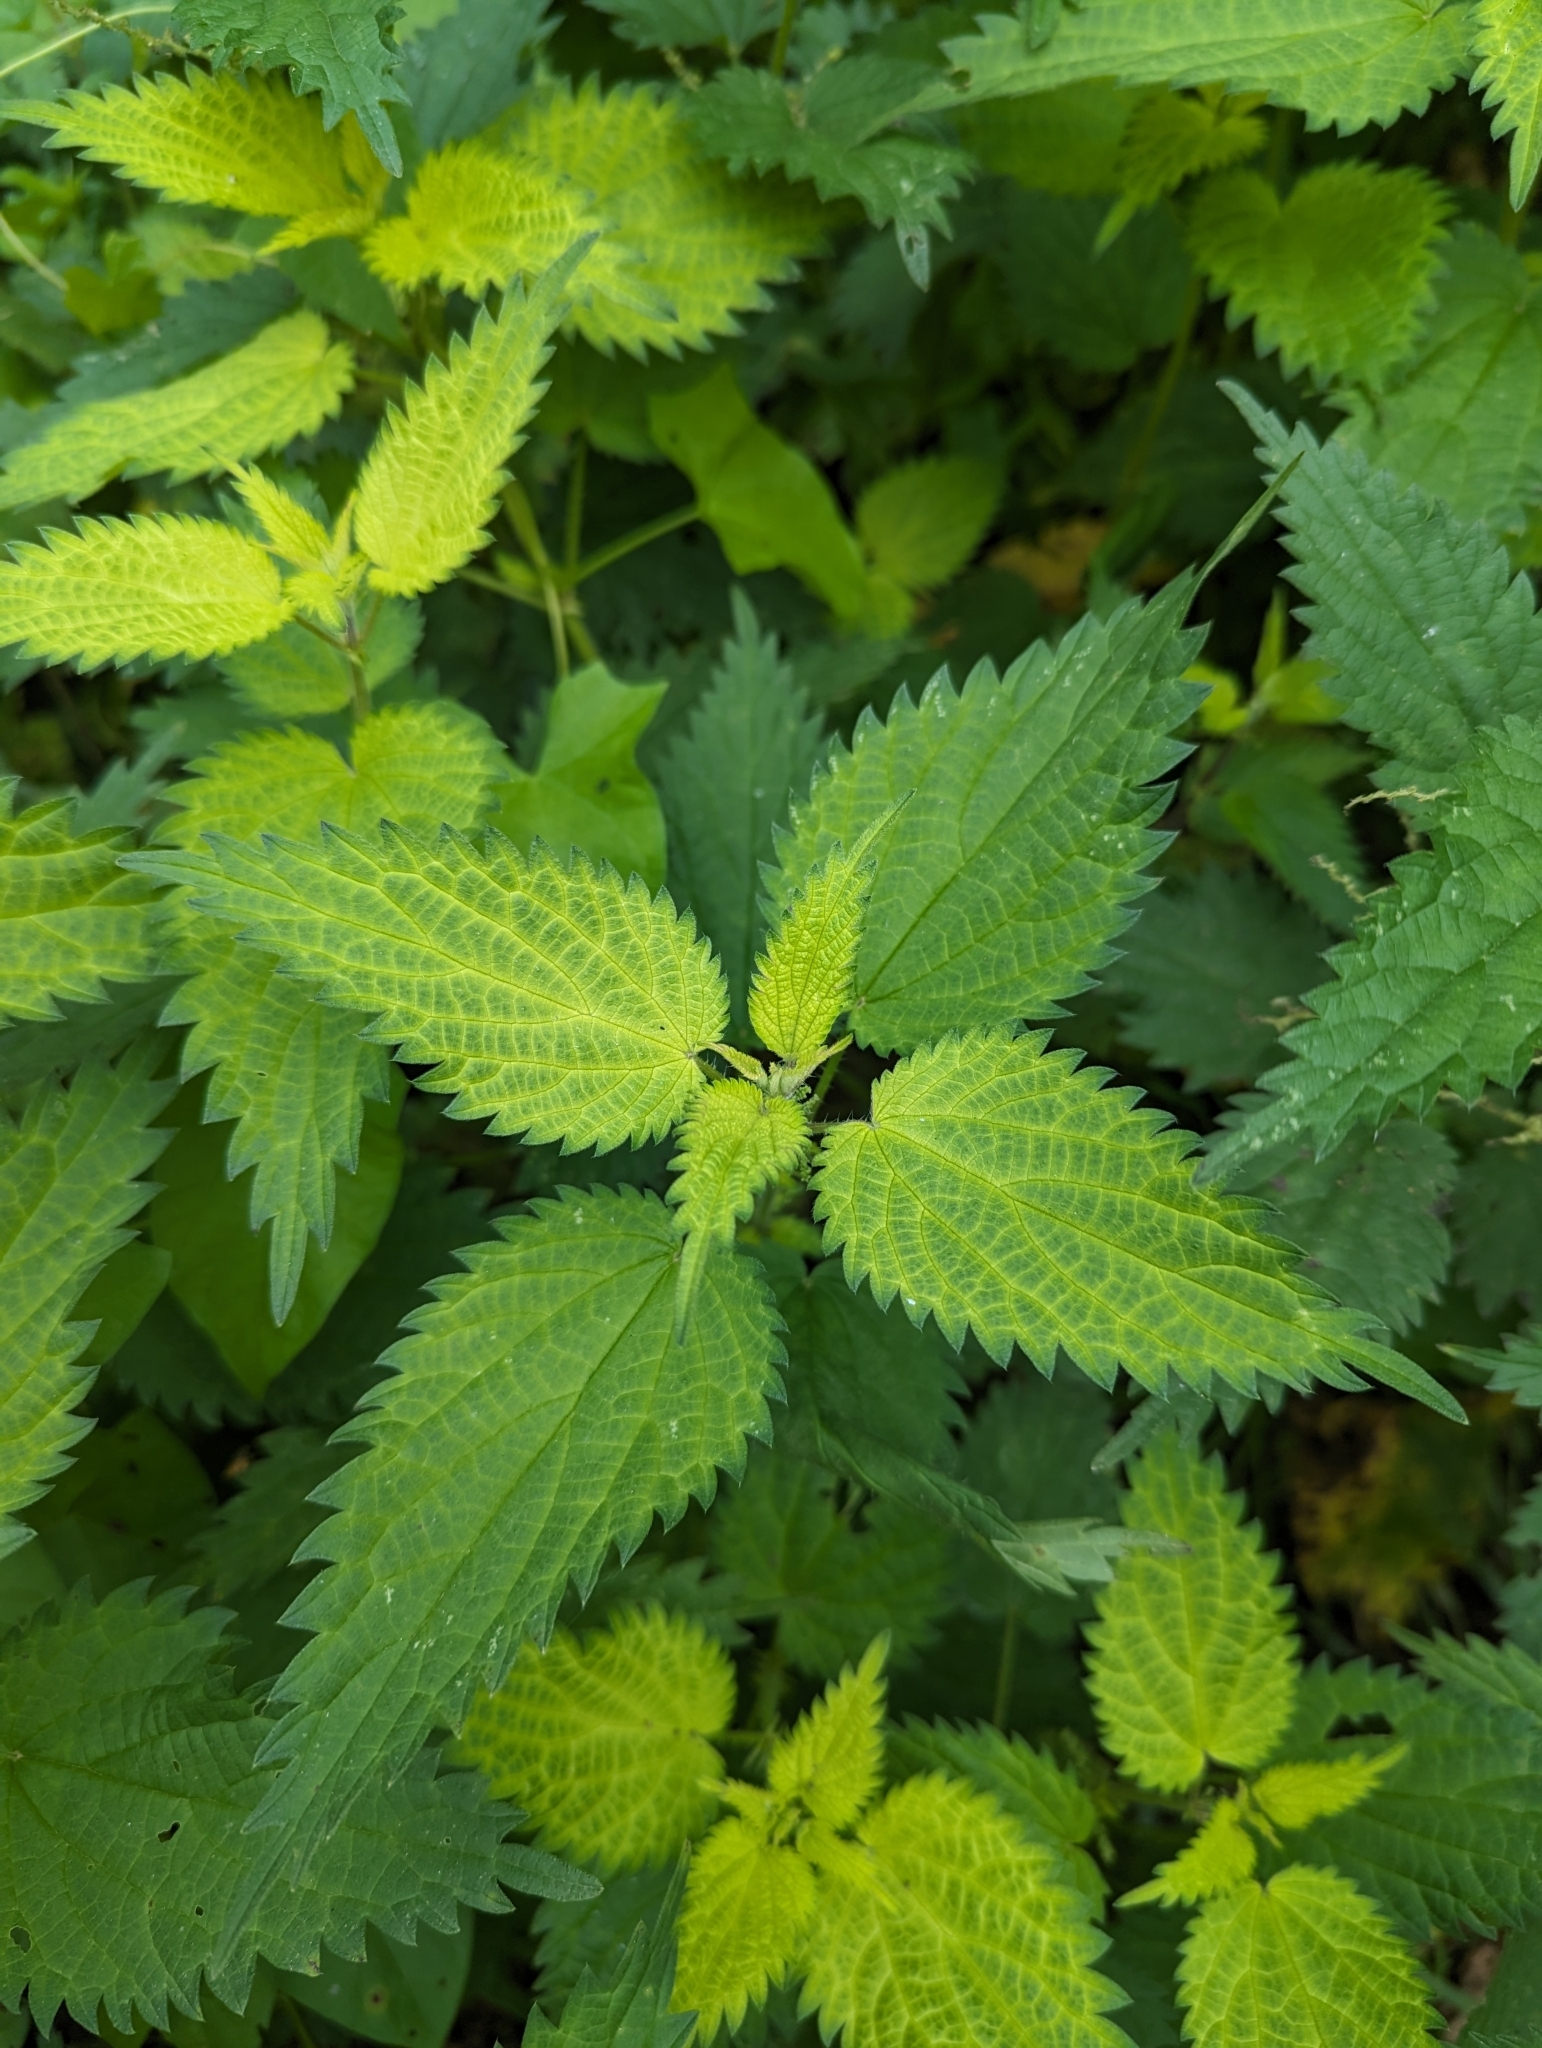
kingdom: Plantae
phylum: Tracheophyta
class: Magnoliopsida
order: Rosales
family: Urticaceae
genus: Urtica
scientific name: Urtica dioica
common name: Common nettle
